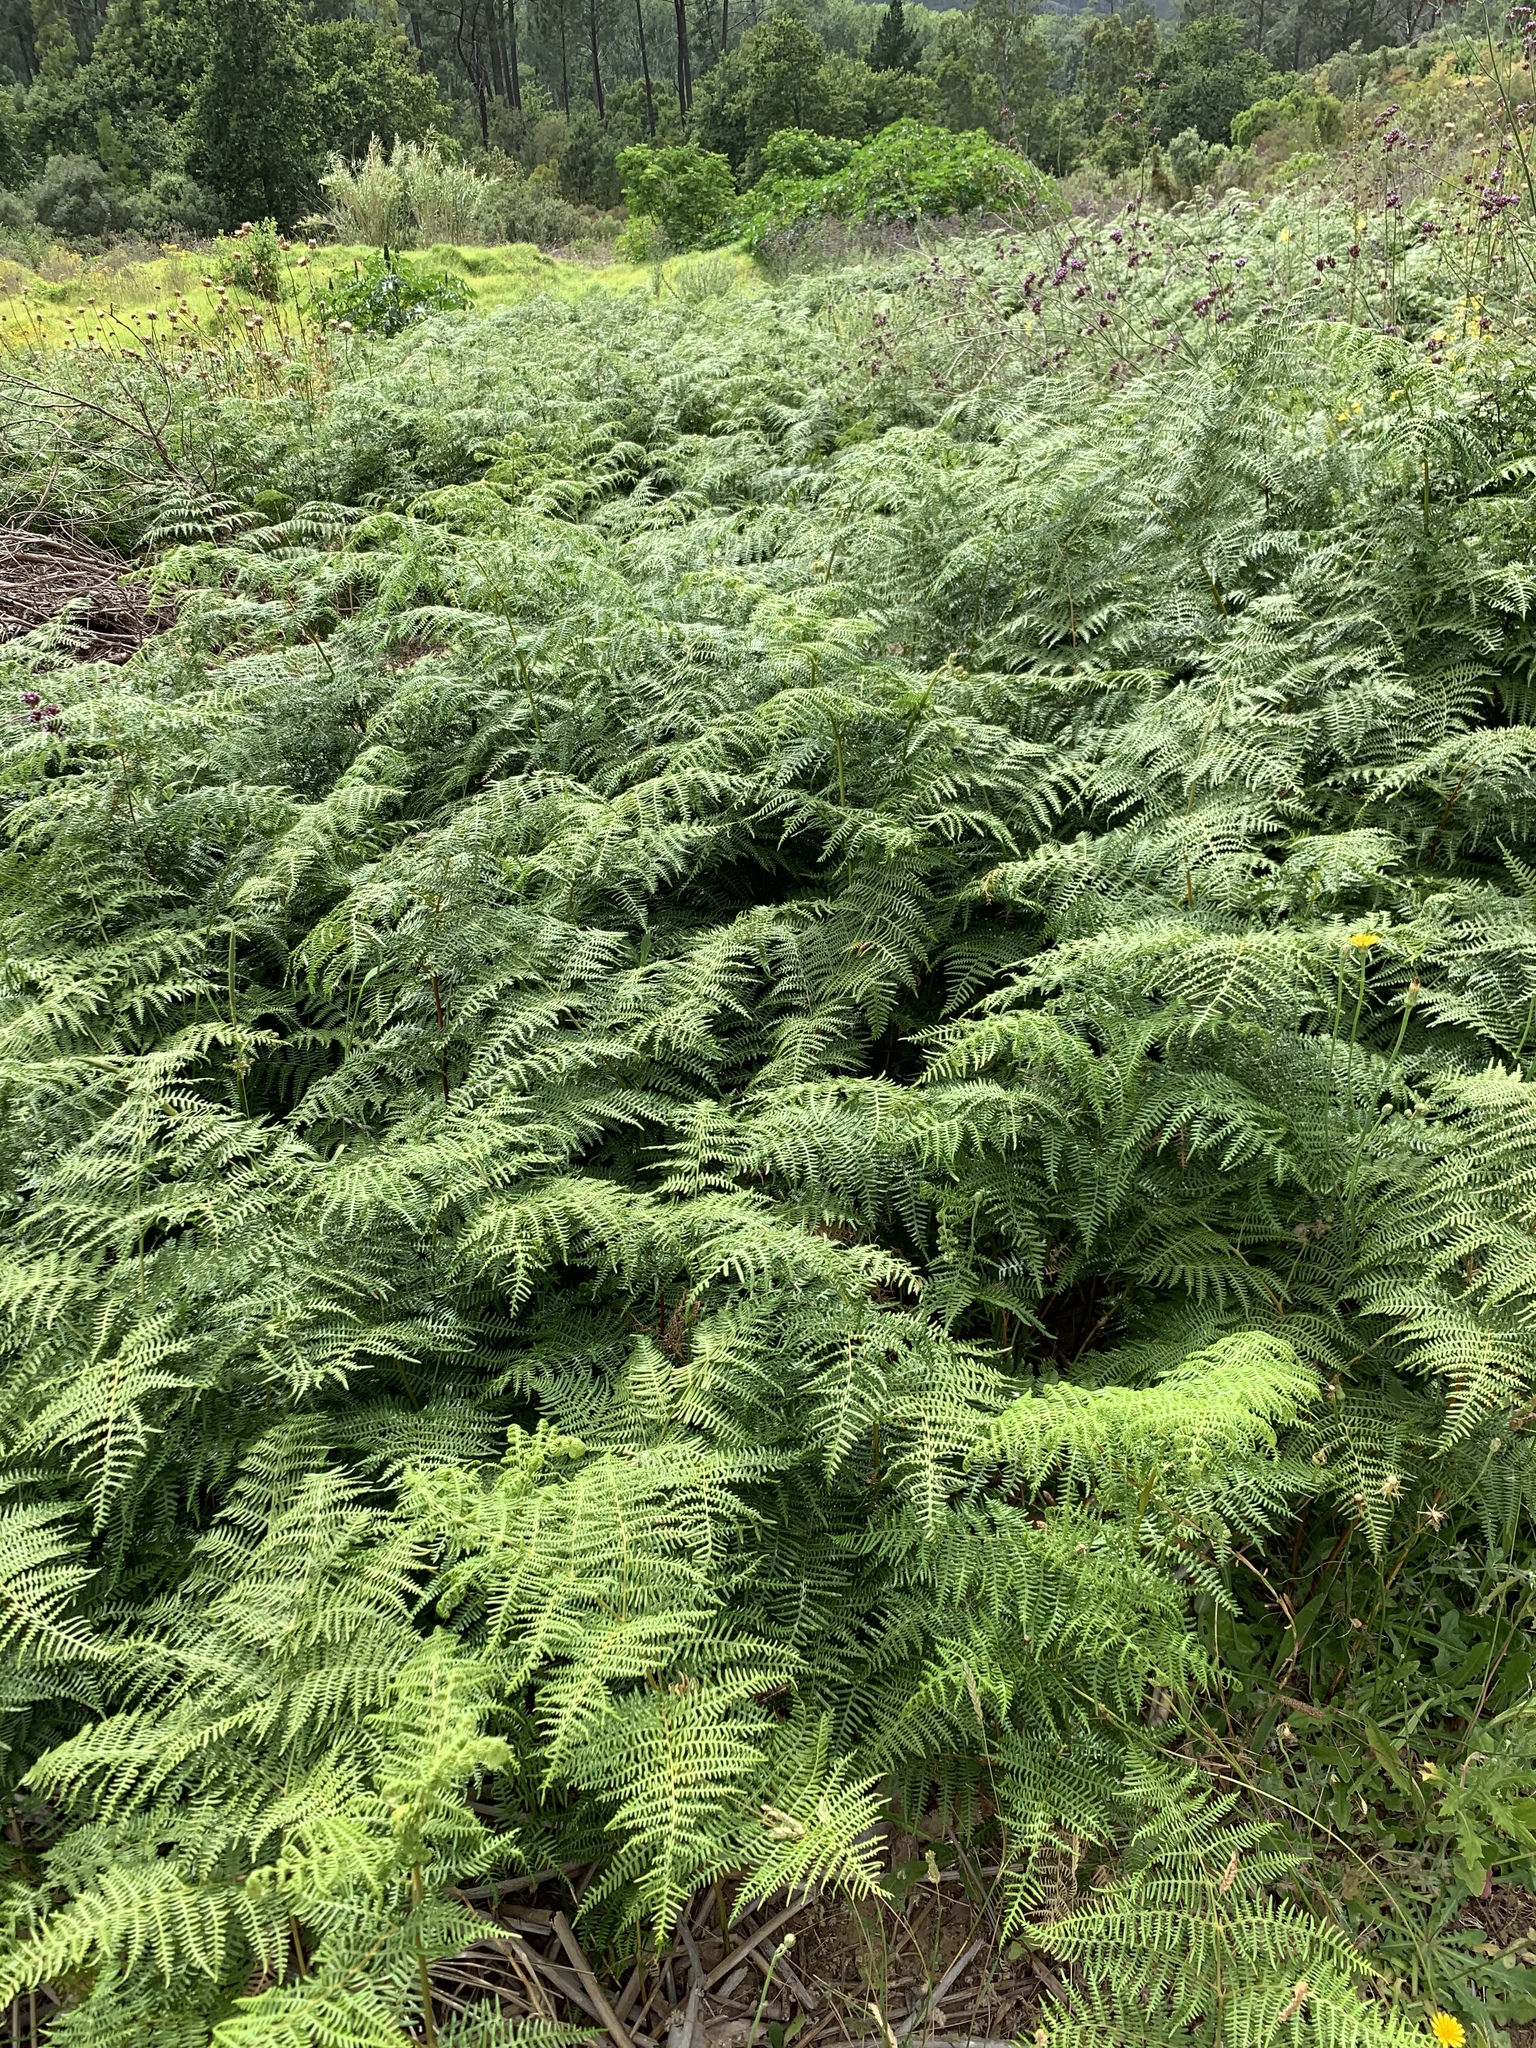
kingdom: Plantae
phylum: Tracheophyta
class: Polypodiopsida
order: Polypodiales
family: Dennstaedtiaceae
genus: Pteridium
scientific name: Pteridium aquilinum
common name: Bracken
